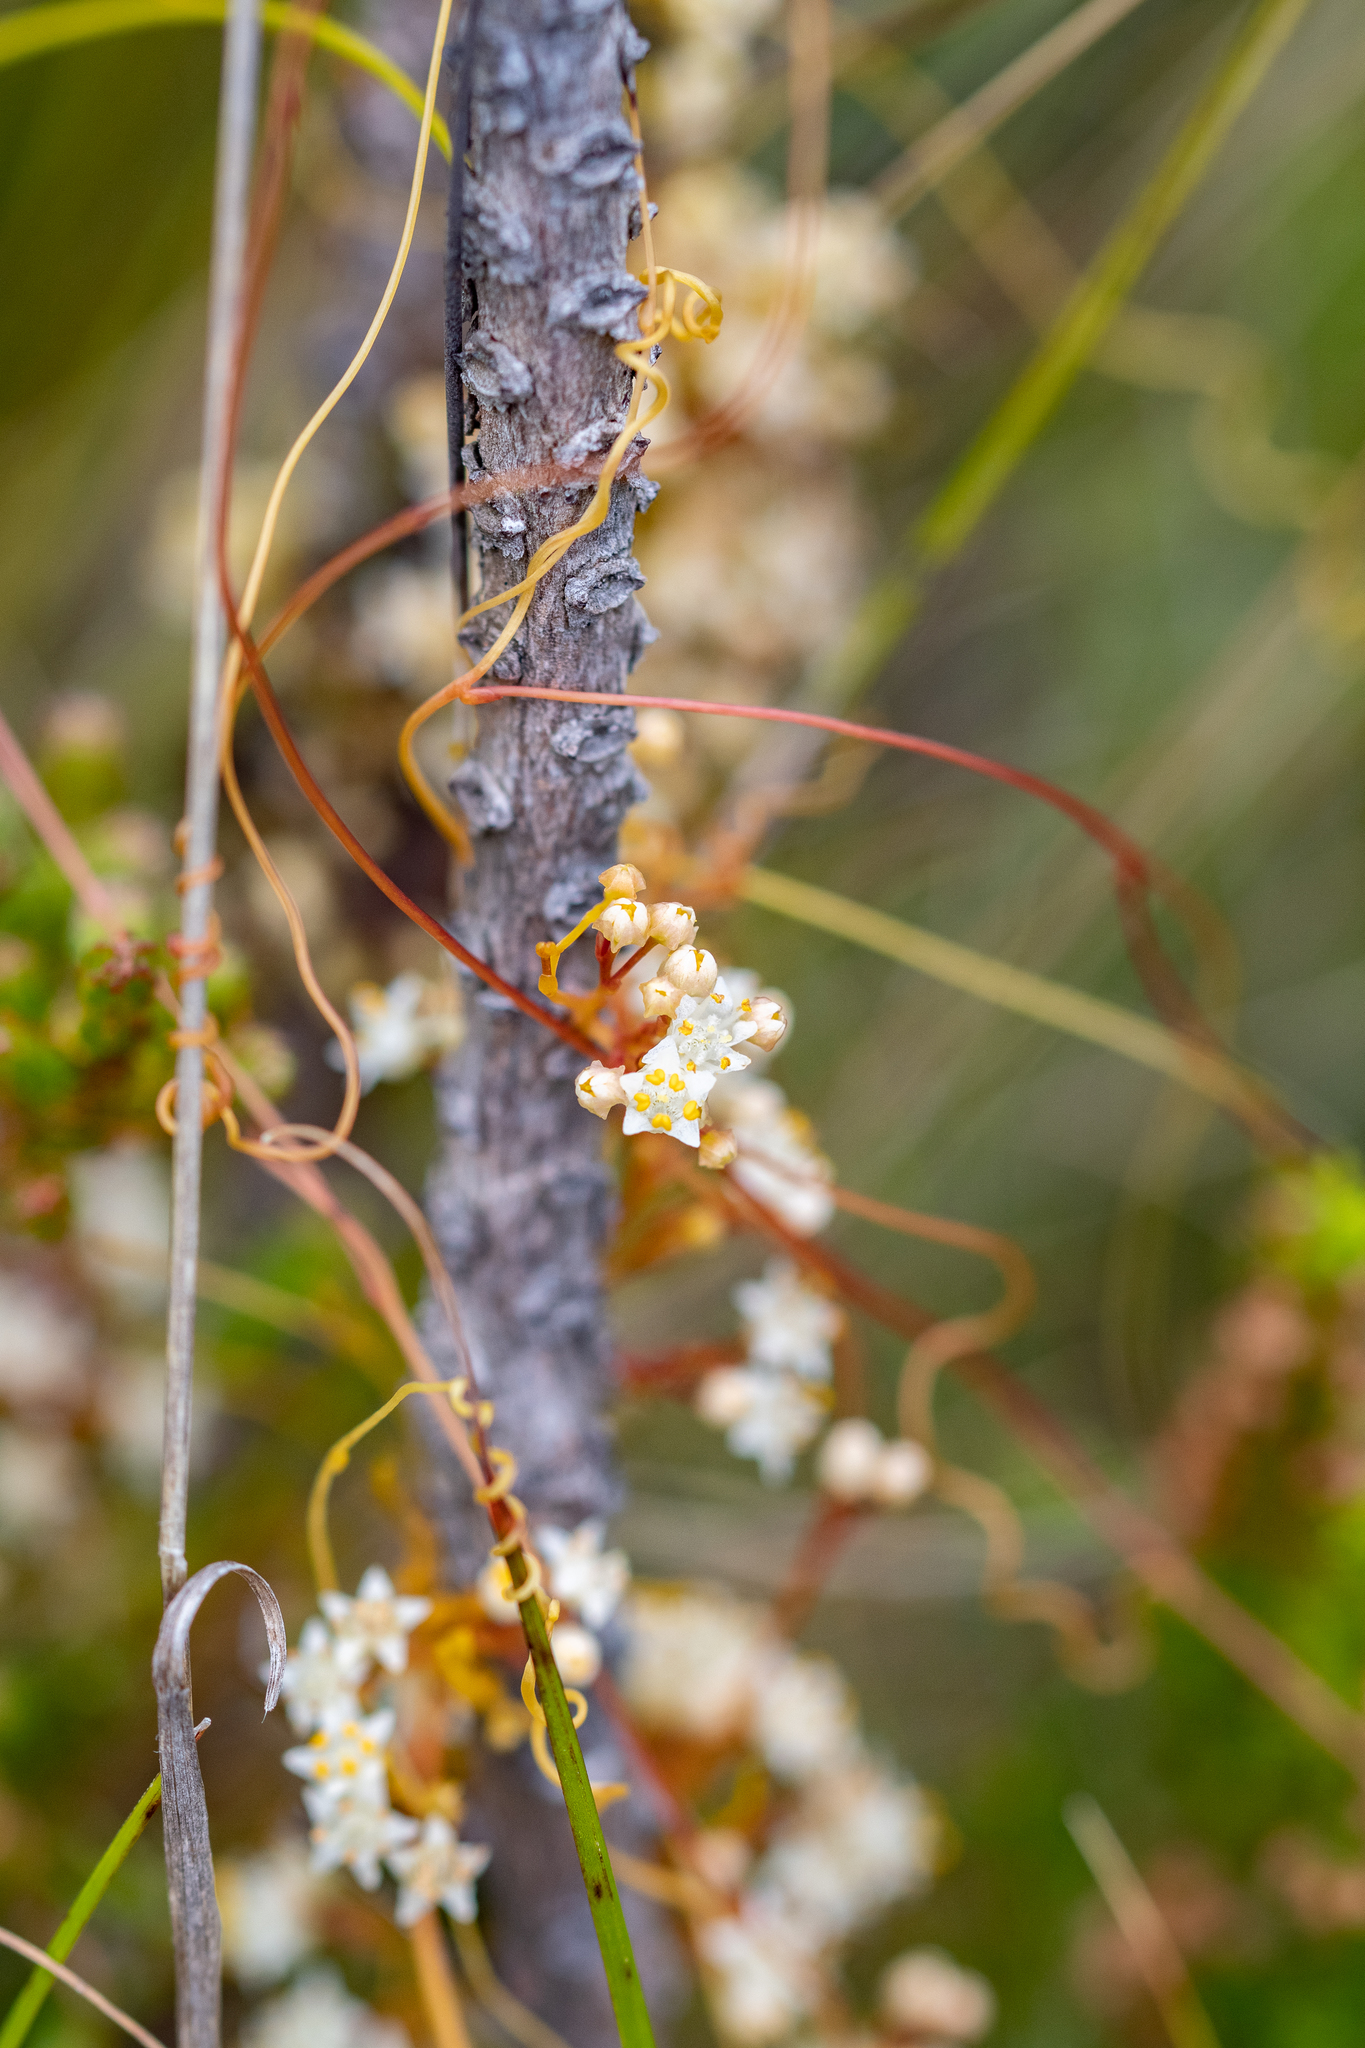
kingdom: Plantae
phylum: Tracheophyta
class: Magnoliopsida
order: Solanales
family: Convolvulaceae
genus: Cuscuta
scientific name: Cuscuta angulata
